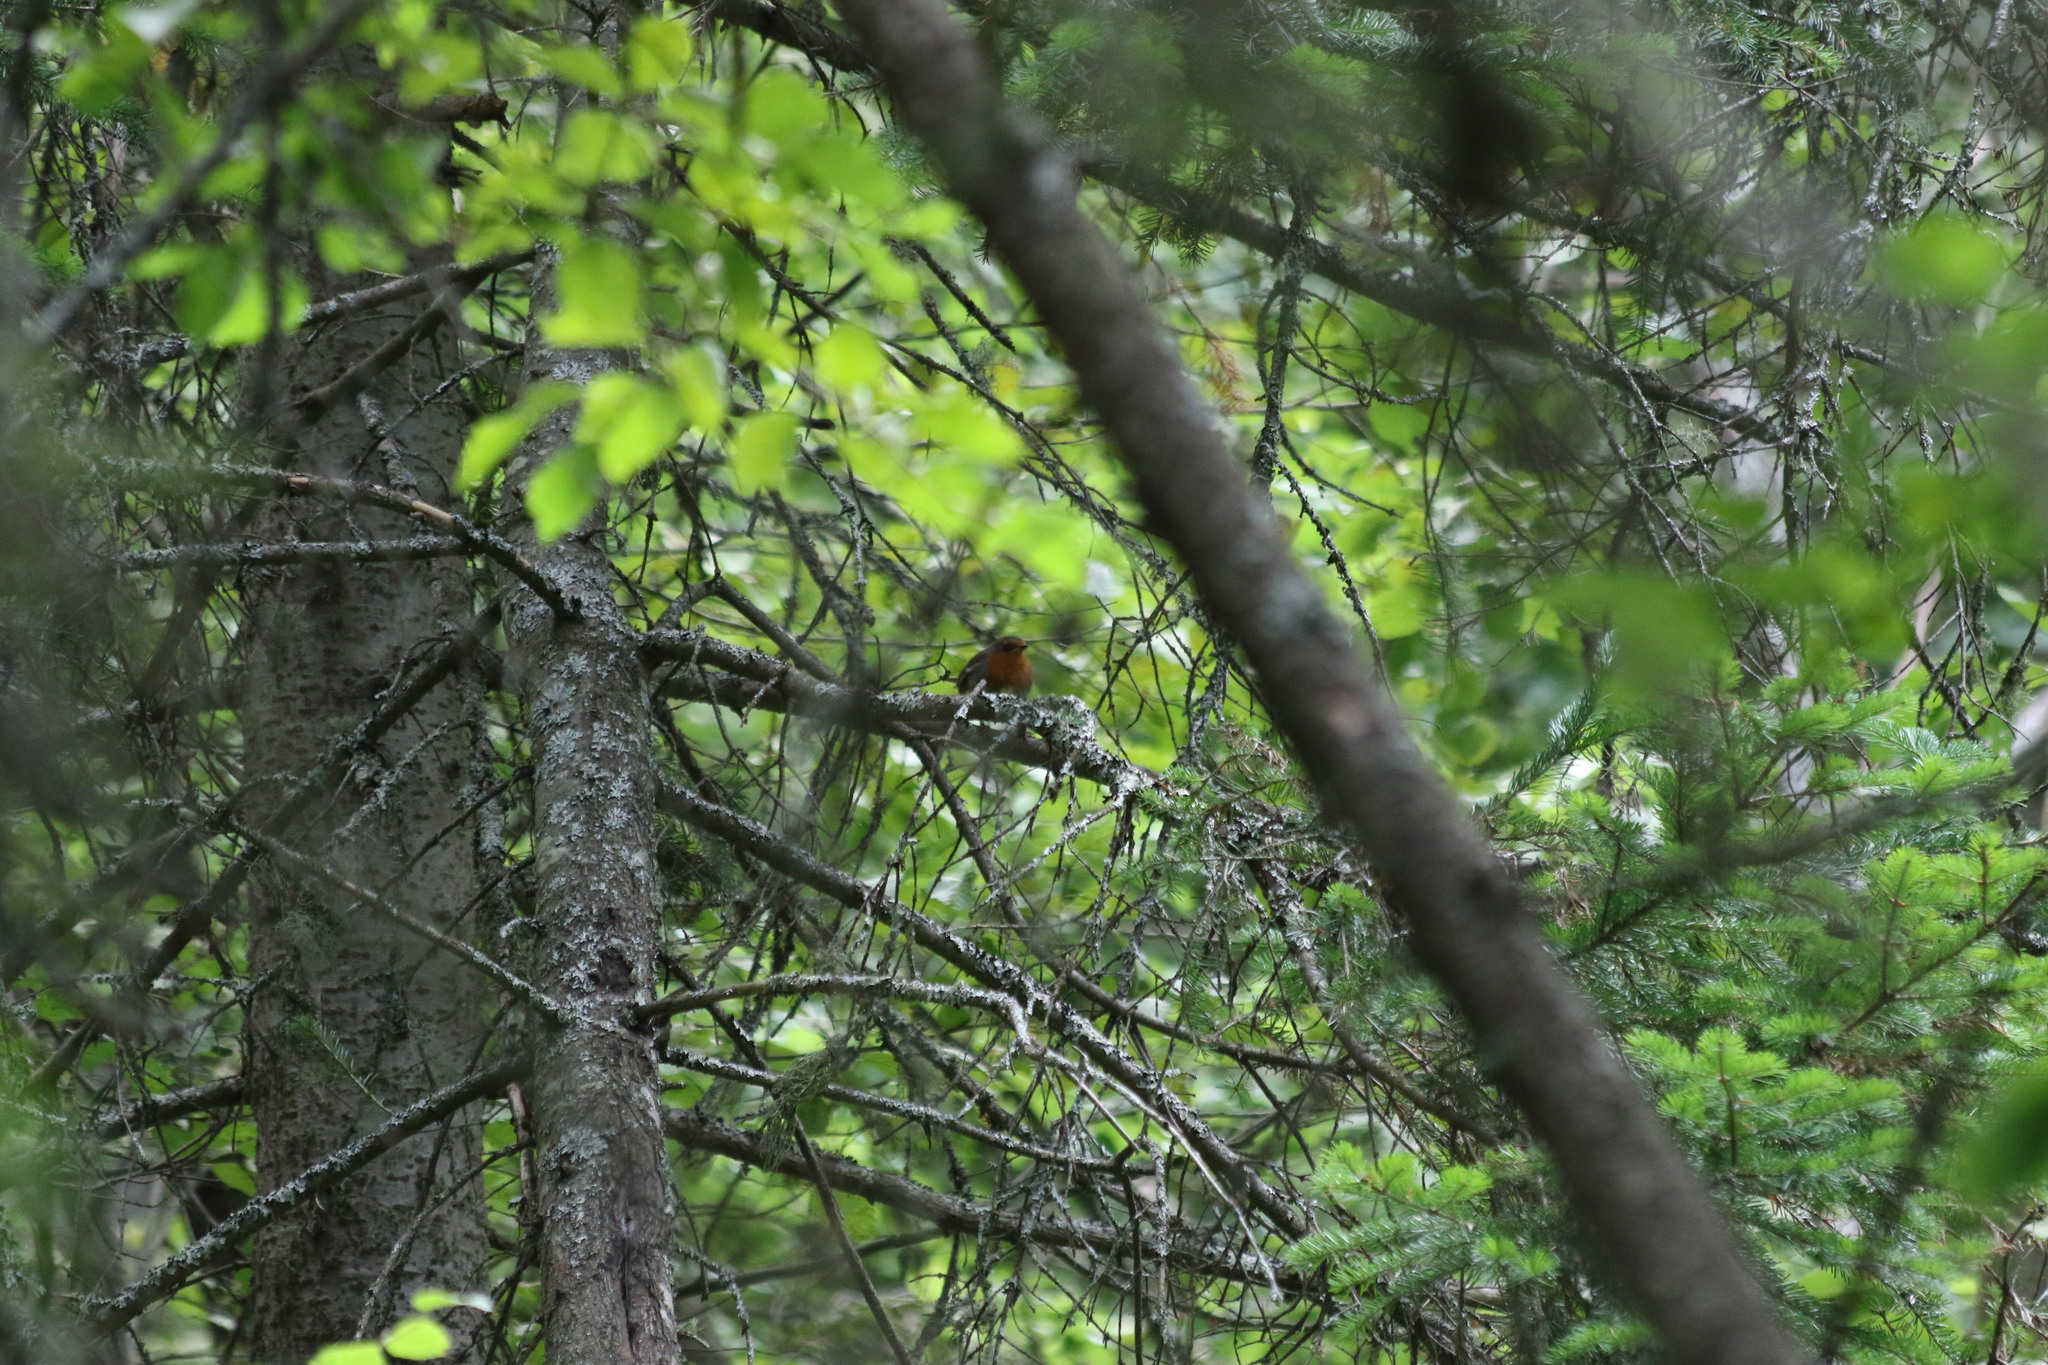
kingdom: Animalia
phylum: Chordata
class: Aves
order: Passeriformes
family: Muscicapidae
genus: Erithacus
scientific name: Erithacus rubecula
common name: European robin
